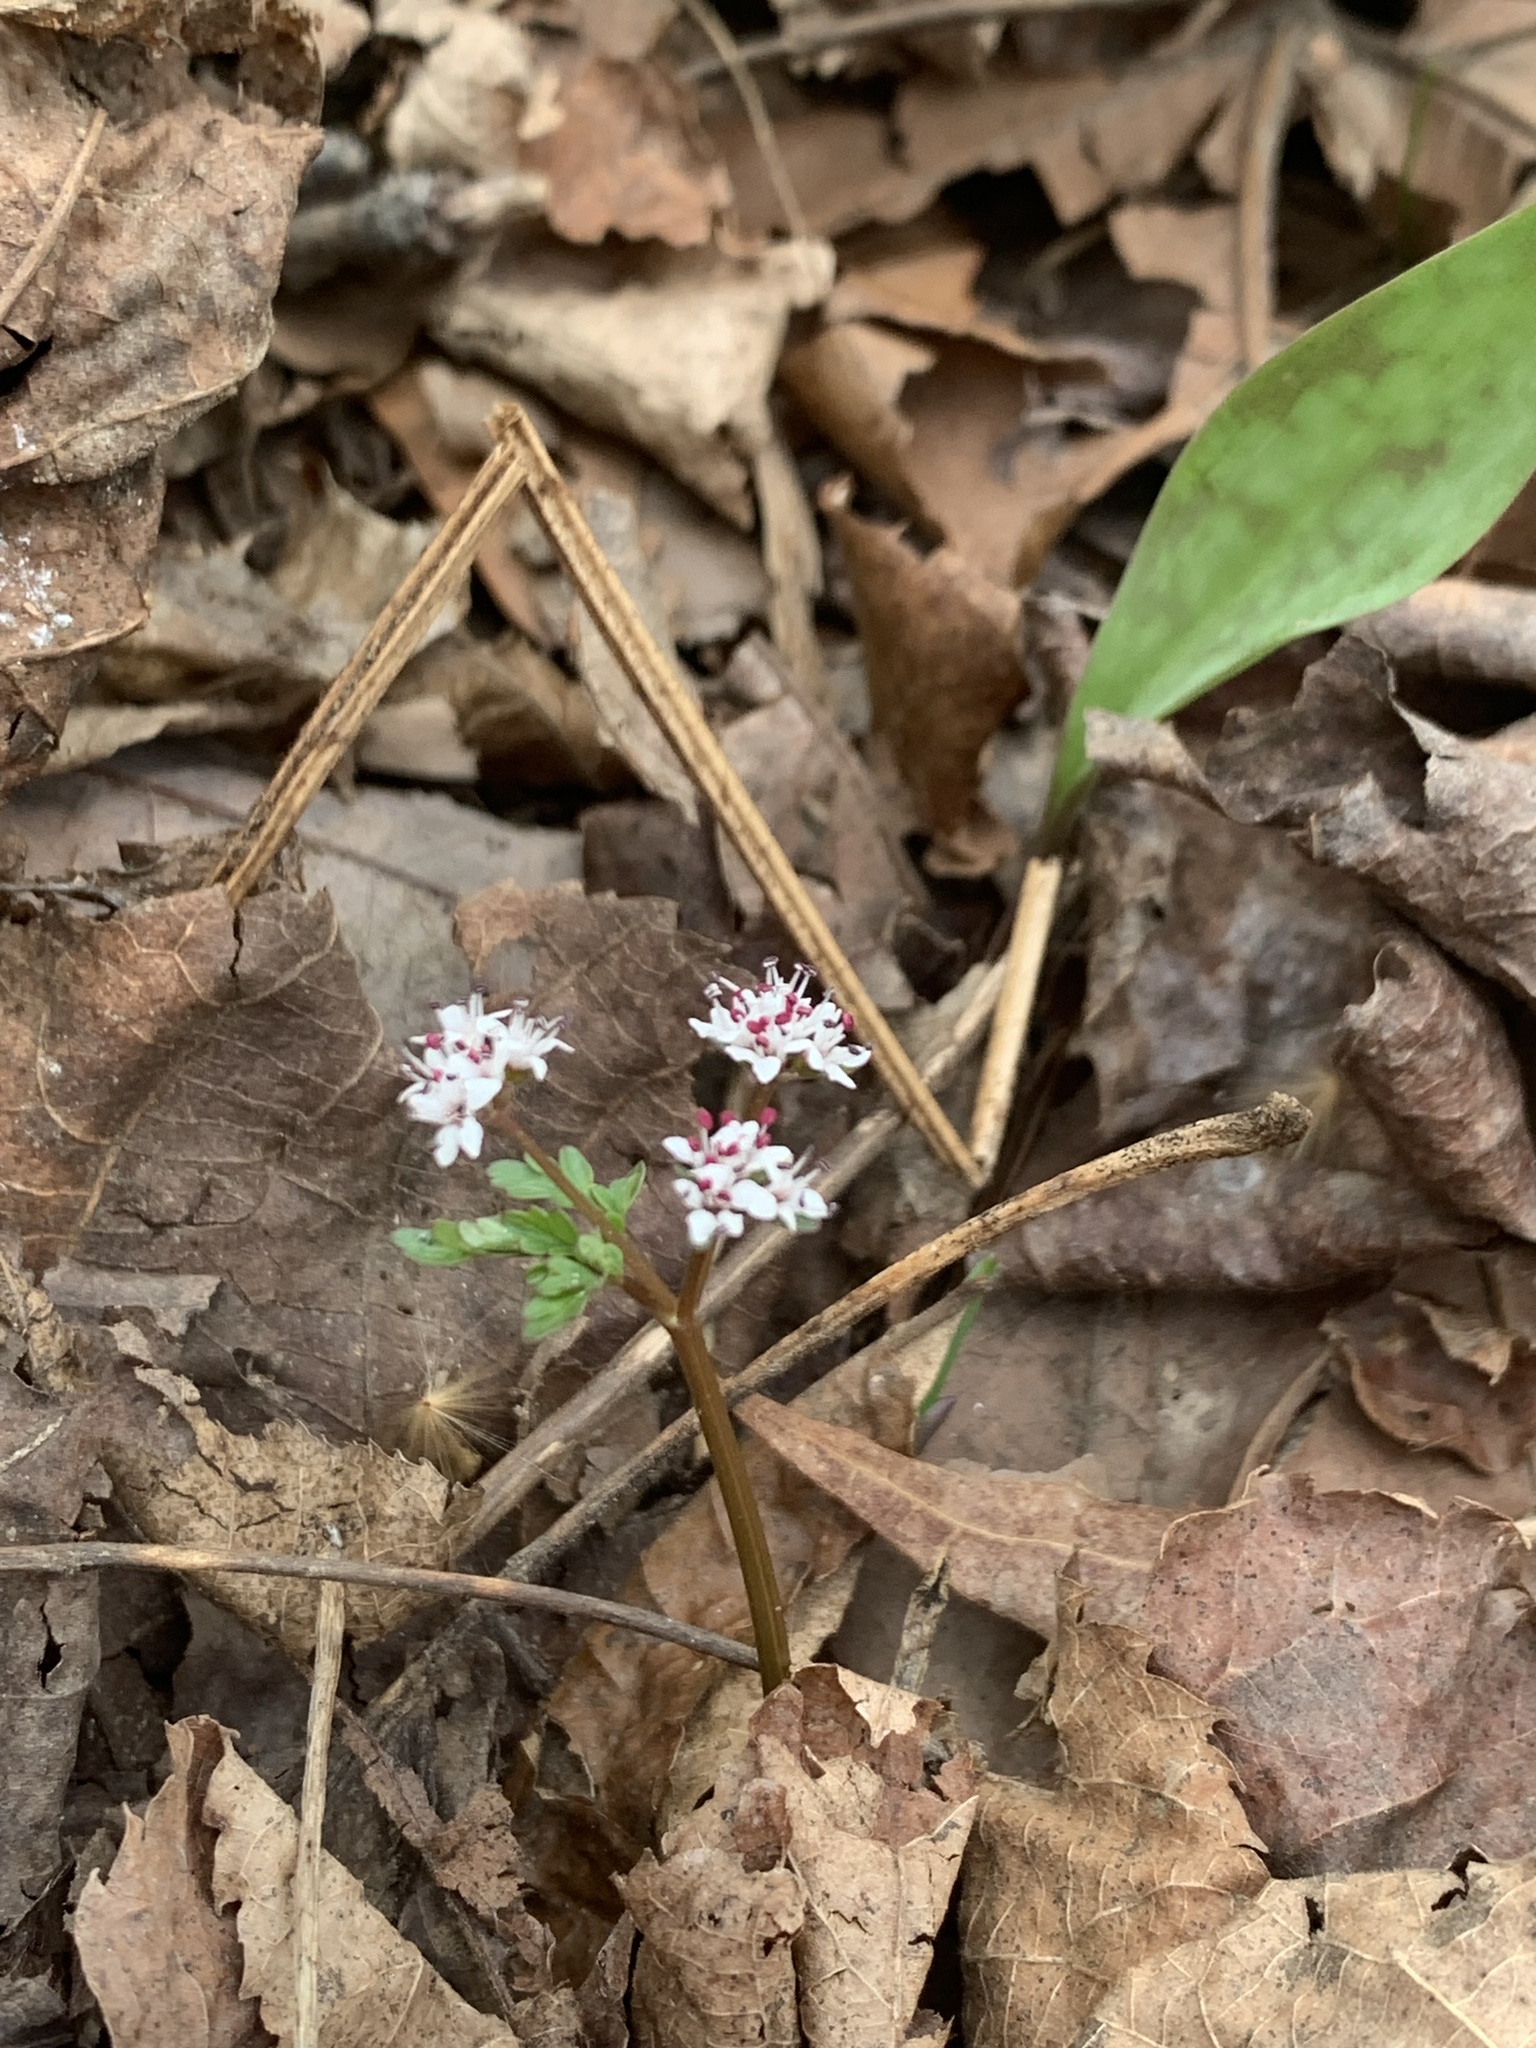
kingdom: Plantae
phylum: Tracheophyta
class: Magnoliopsida
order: Apiales
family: Apiaceae
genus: Erigenia
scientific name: Erigenia bulbosa
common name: Pepper-and-salt
